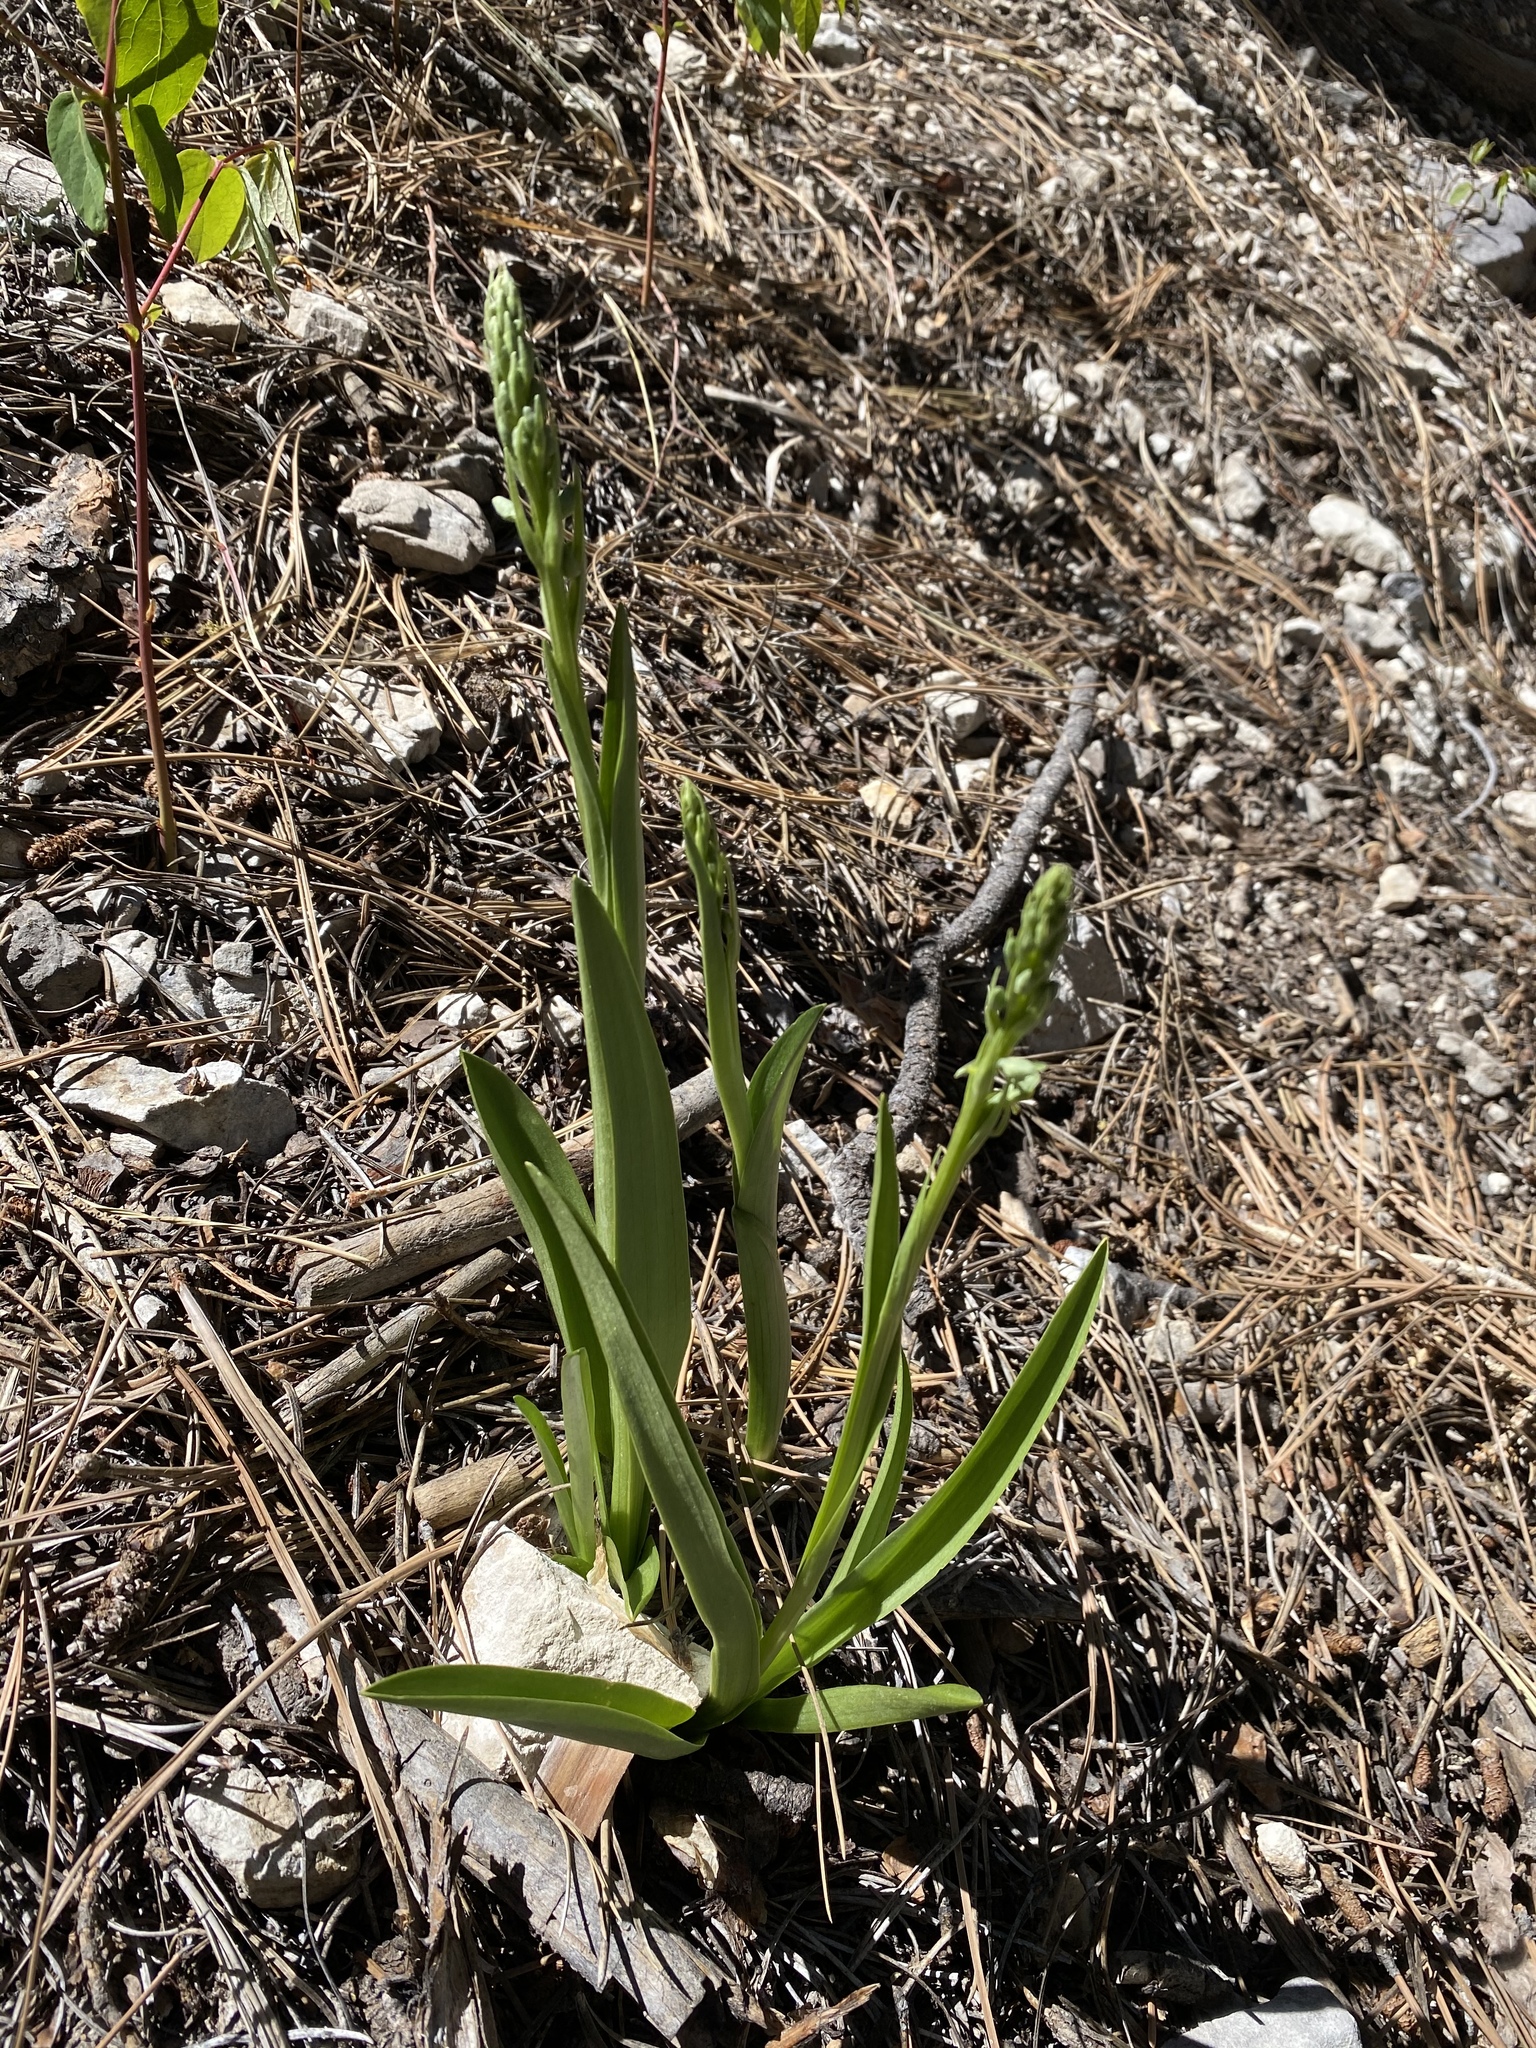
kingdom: Plantae
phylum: Tracheophyta
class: Liliopsida
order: Asparagales
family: Orchidaceae
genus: Platanthera
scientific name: Platanthera tescamnis
